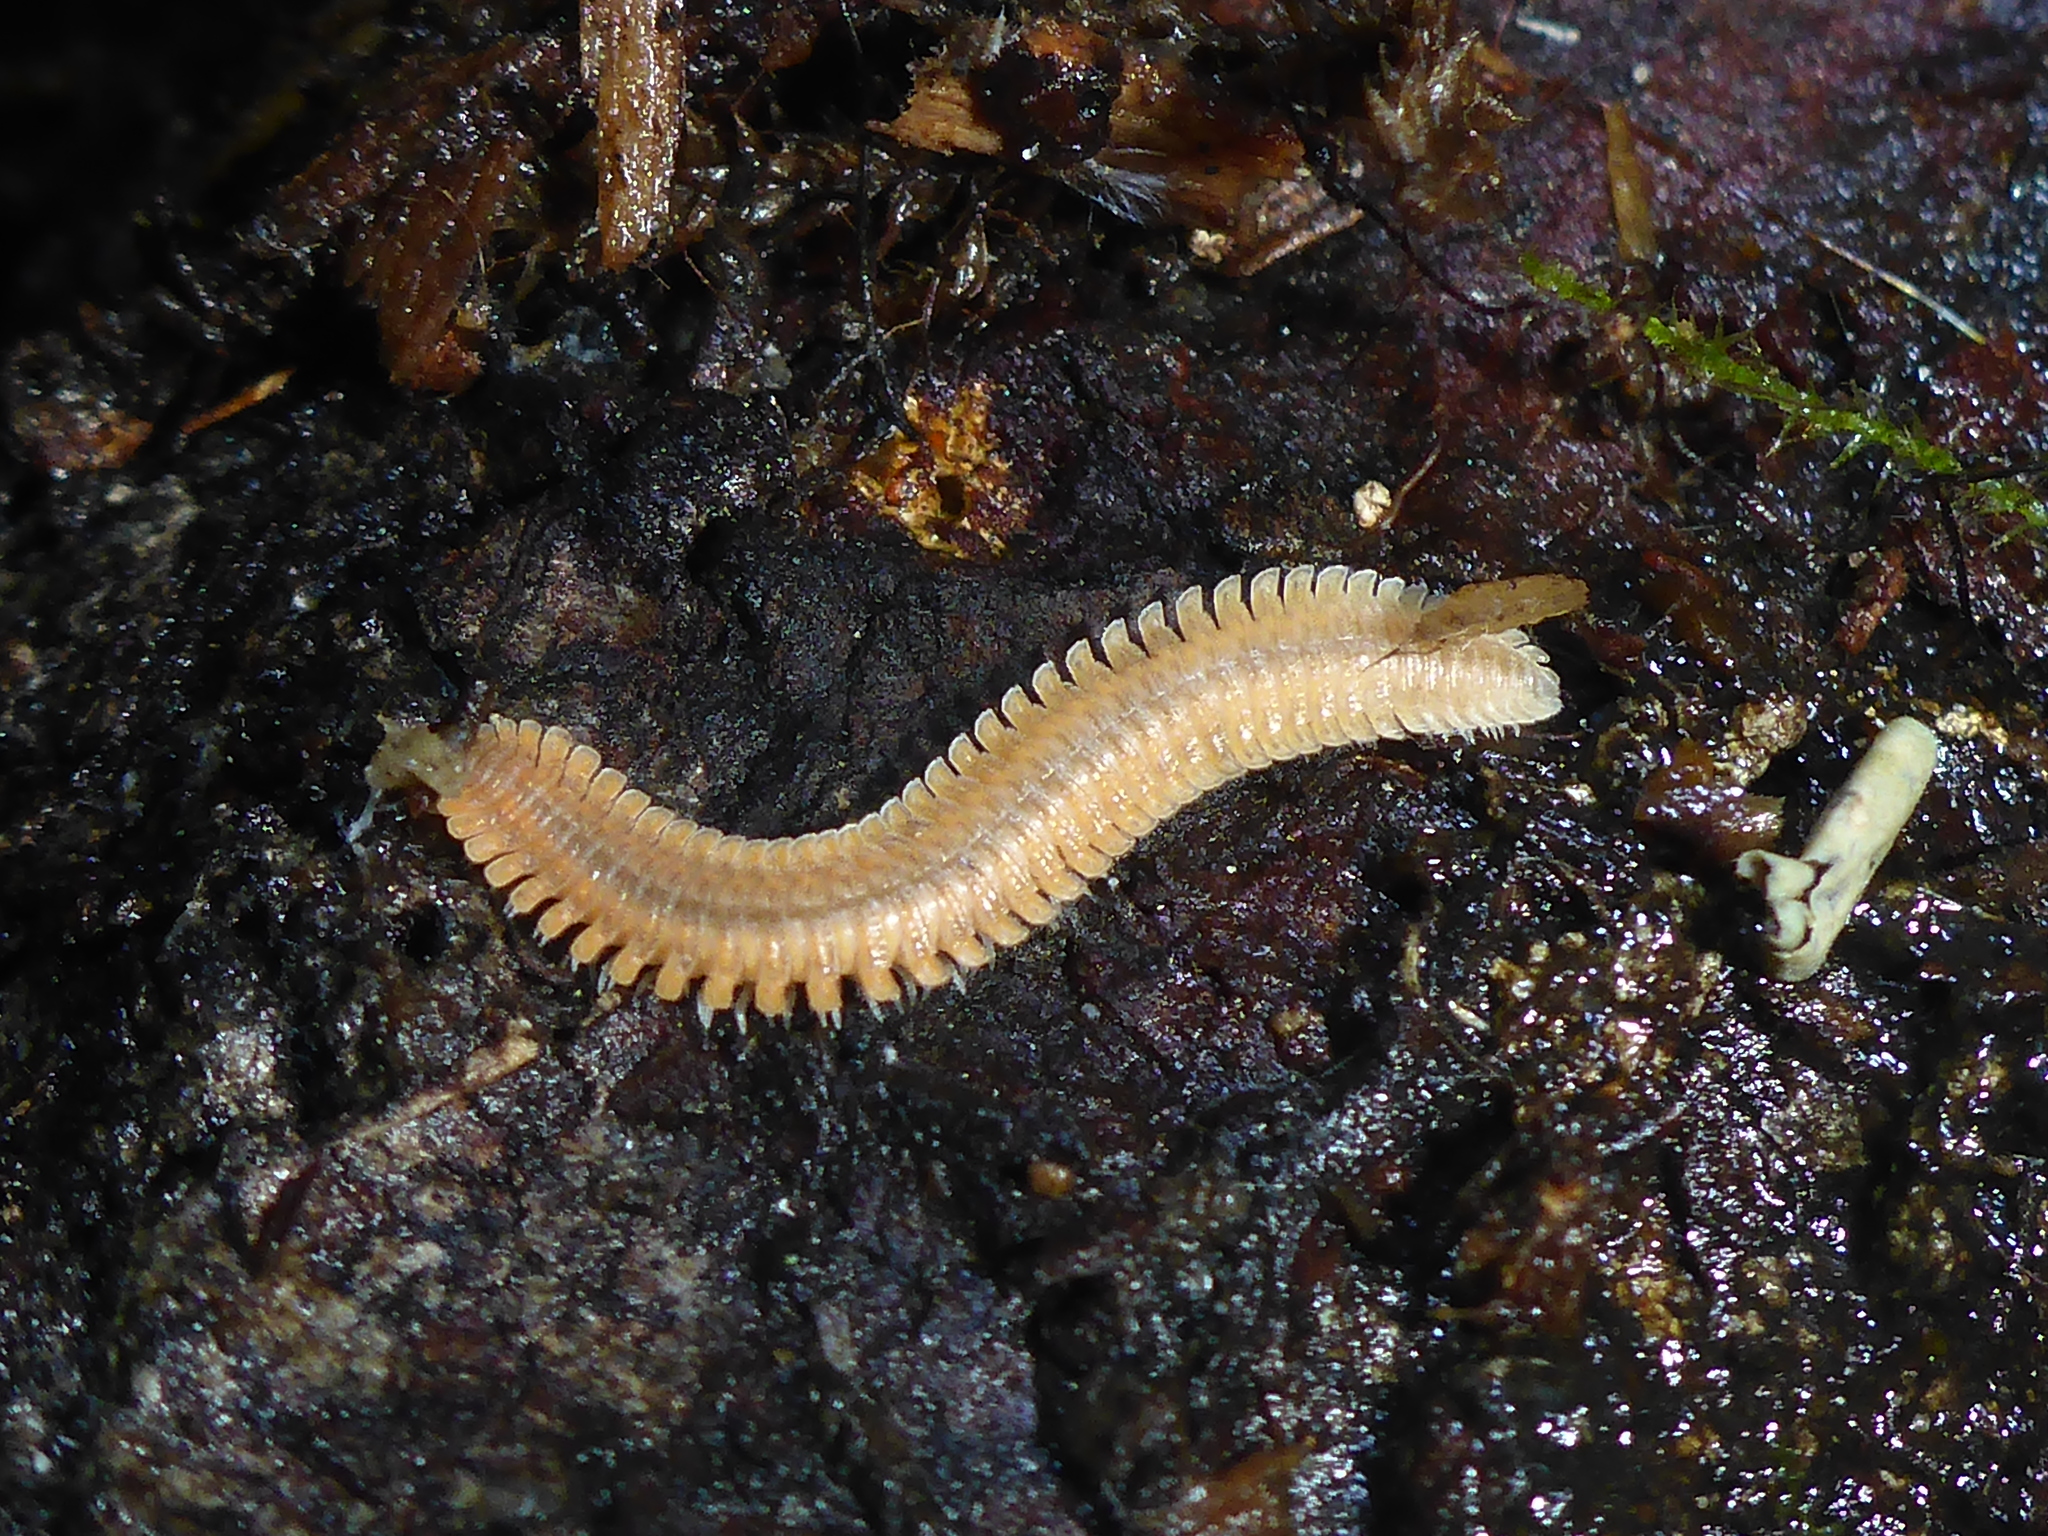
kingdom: Animalia
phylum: Arthropoda
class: Diplopoda
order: Platydesmida
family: Andrognathidae
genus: Brachycybe
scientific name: Brachycybe producta
